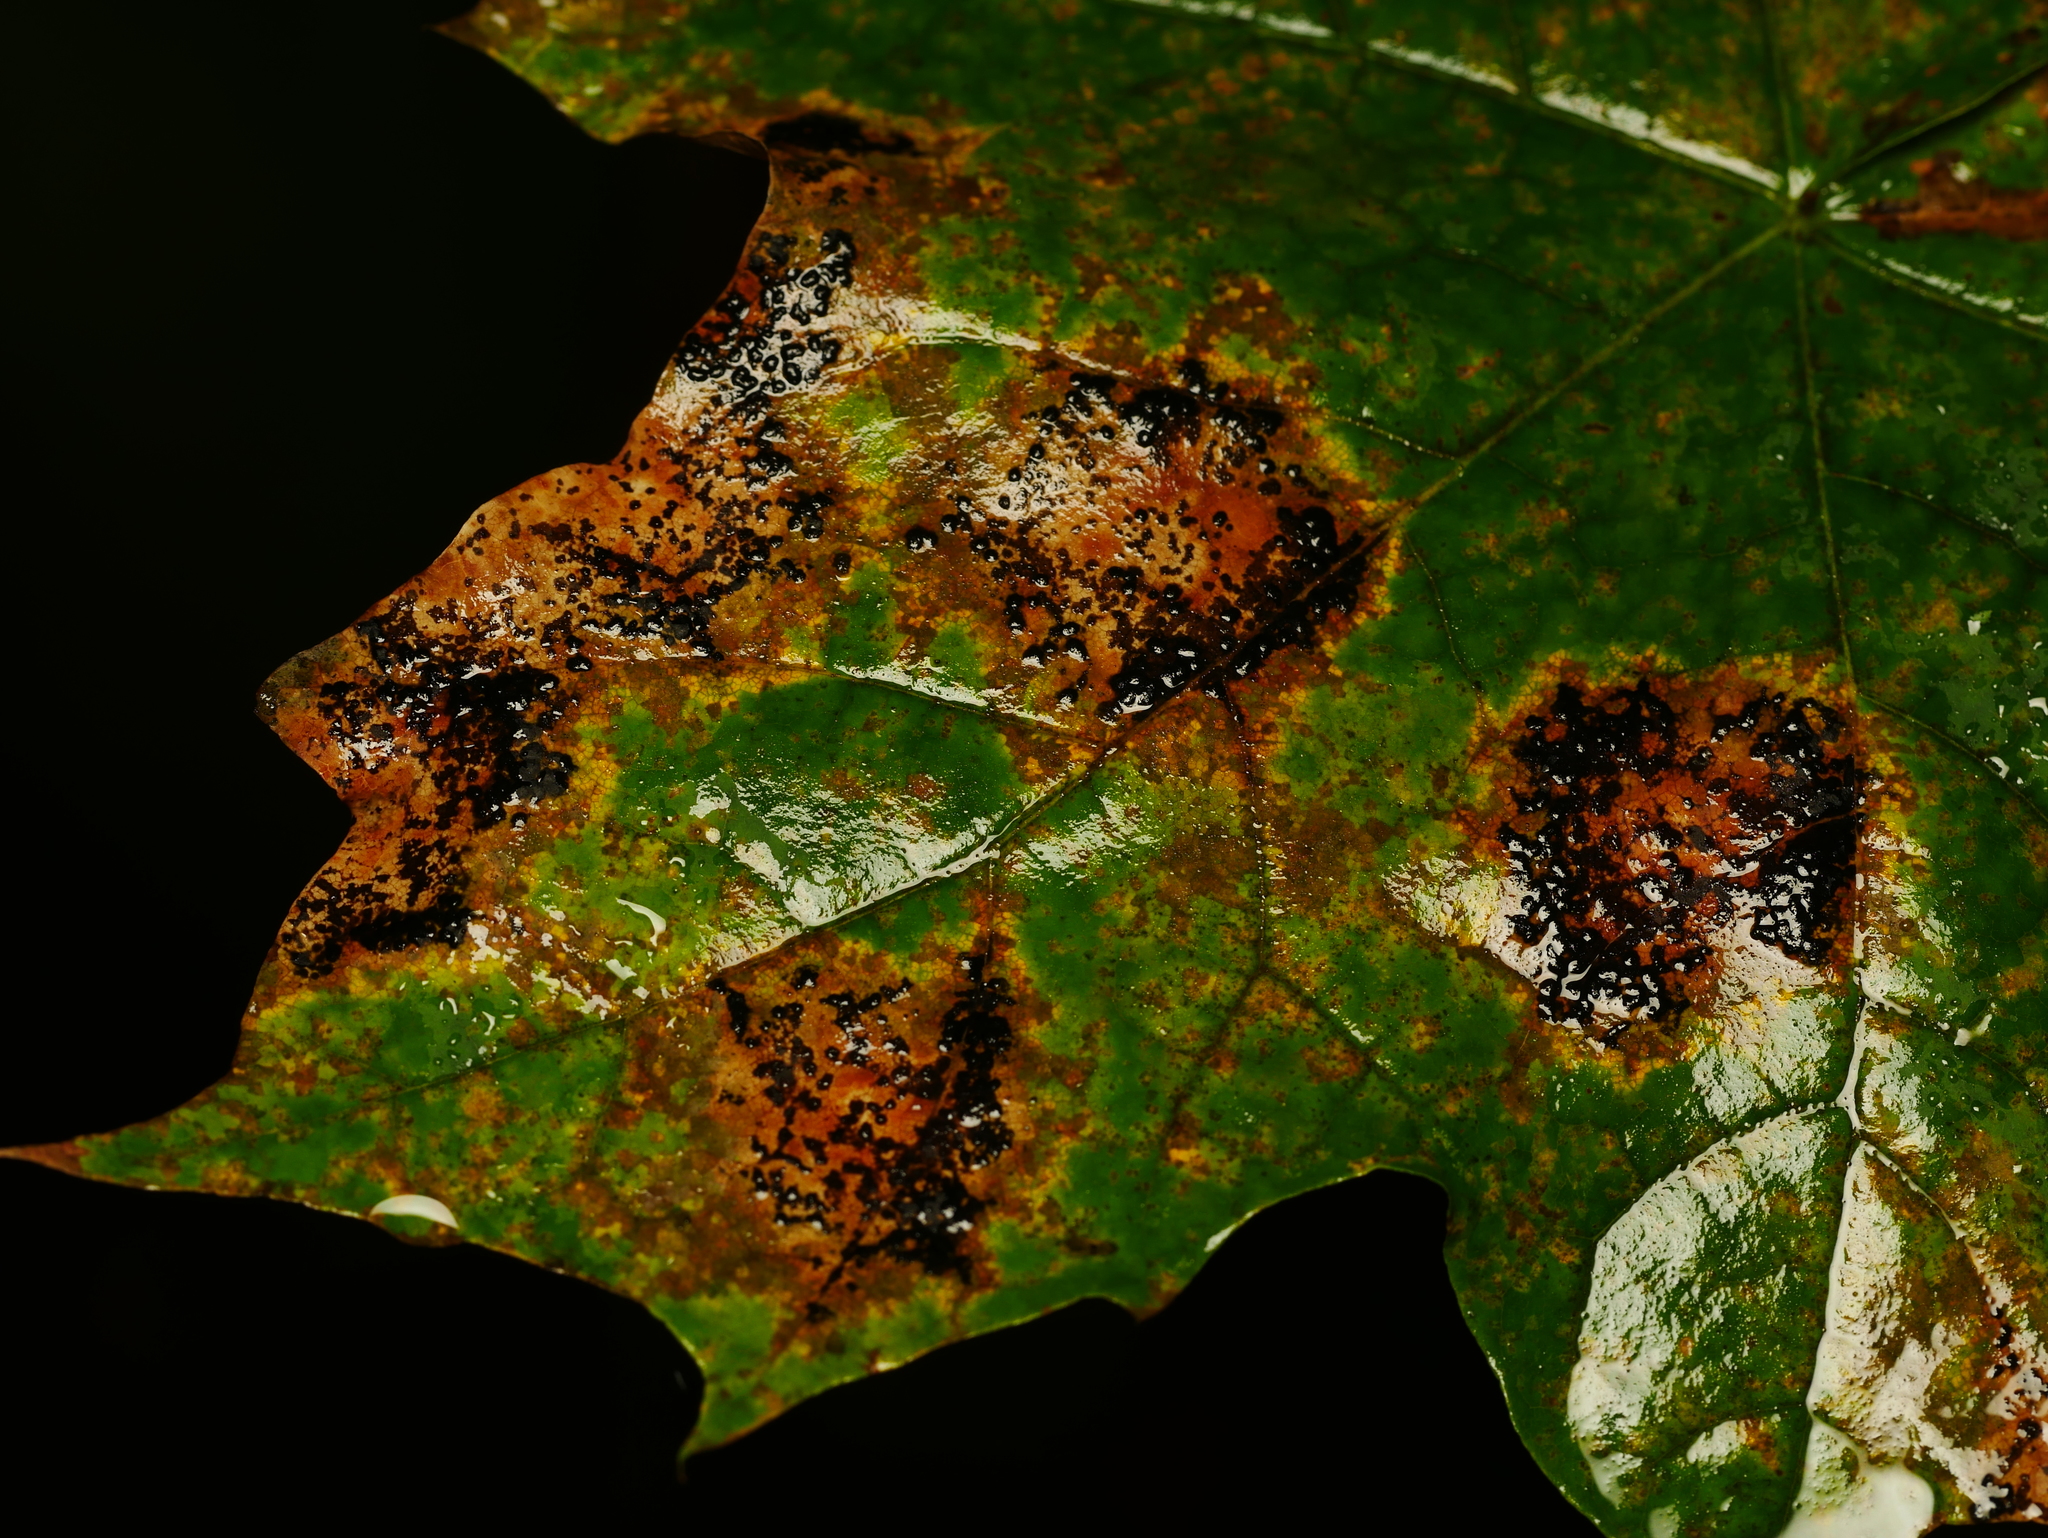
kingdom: Fungi
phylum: Ascomycota
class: Leotiomycetes
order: Rhytismatales
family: Rhytismataceae
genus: Rhytisma
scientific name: Rhytisma acerinum
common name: European tar spot
